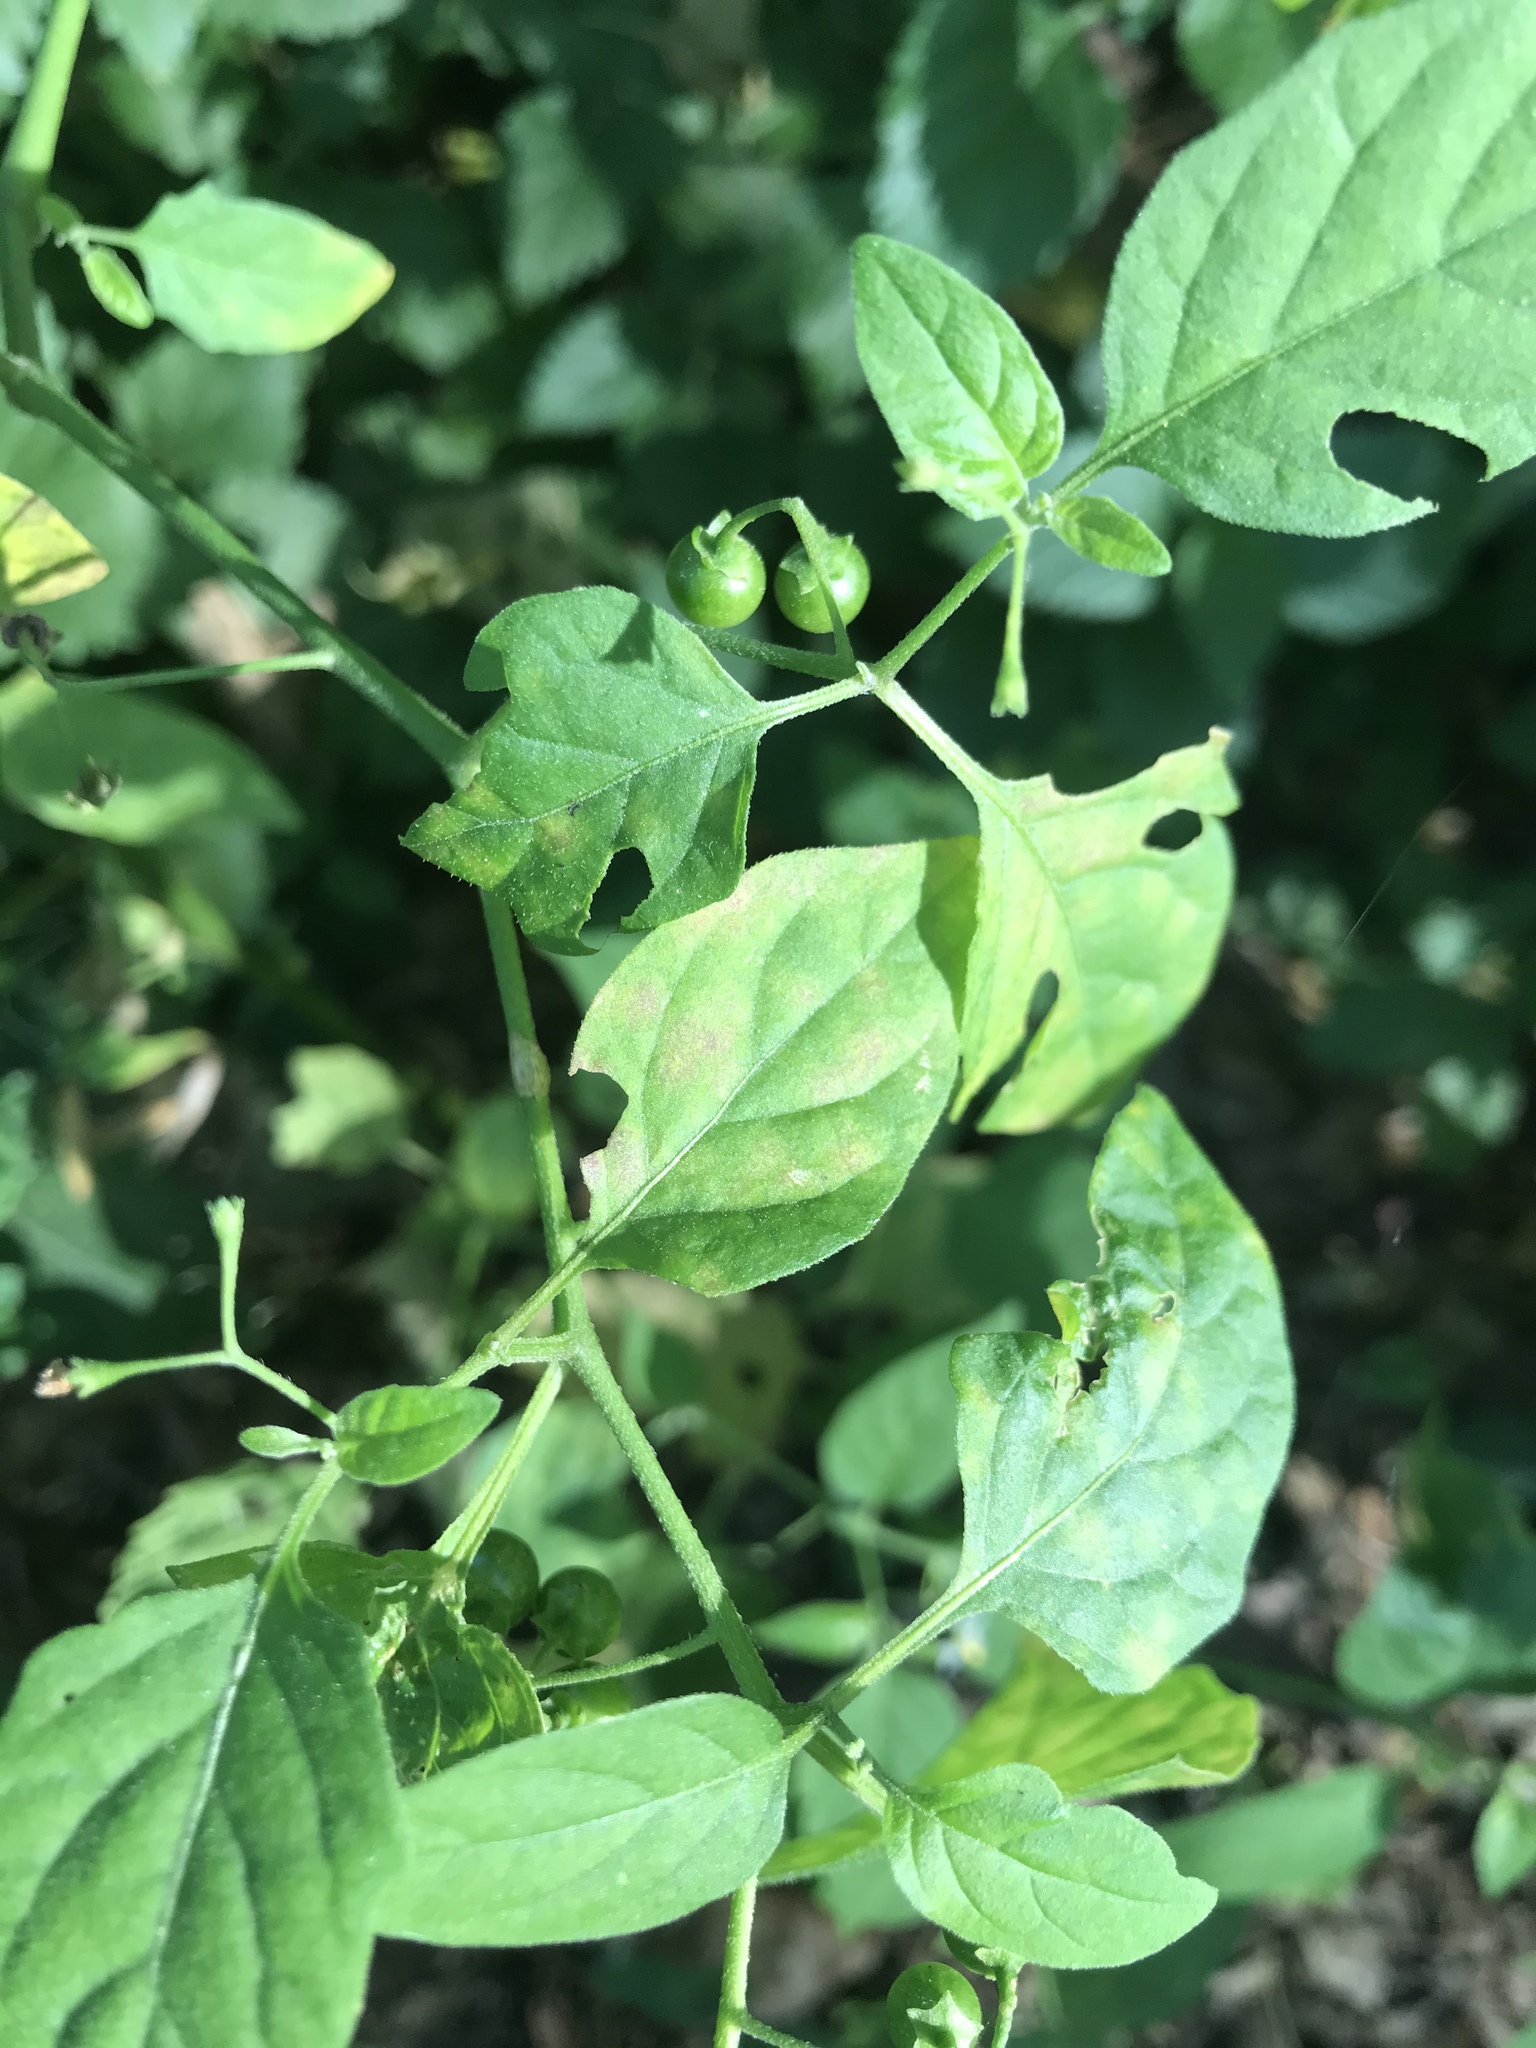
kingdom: Plantae
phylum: Tracheophyta
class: Magnoliopsida
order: Solanales
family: Solanaceae
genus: Solanum
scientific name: Solanum emulans
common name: Eastern black nightshade
